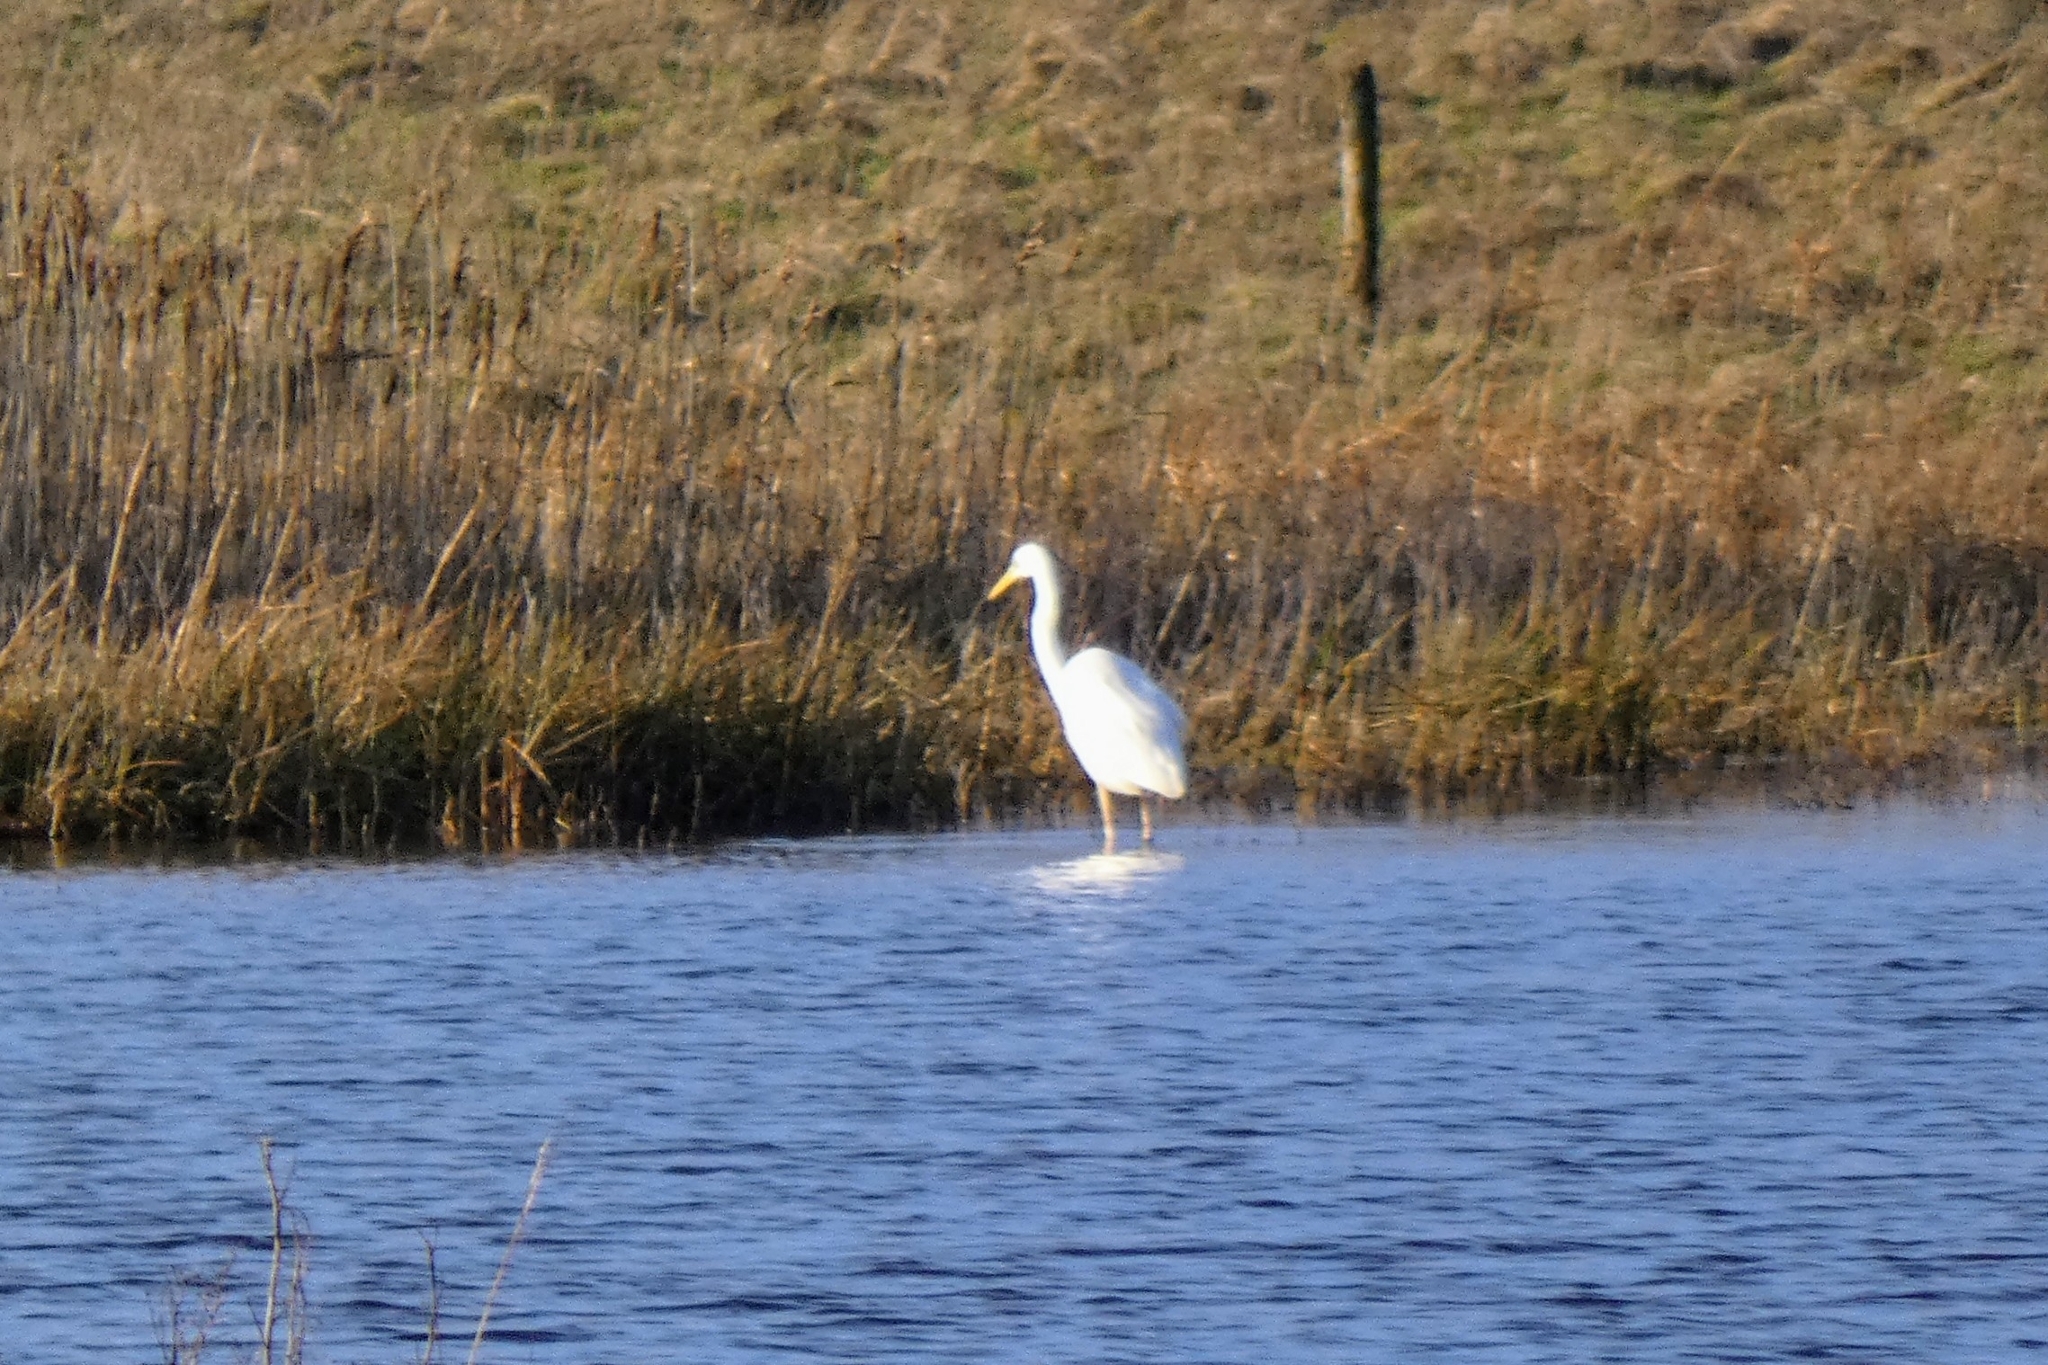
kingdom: Animalia
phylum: Chordata
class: Aves
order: Pelecaniformes
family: Ardeidae
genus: Ardea
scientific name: Ardea alba
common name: Great egret
